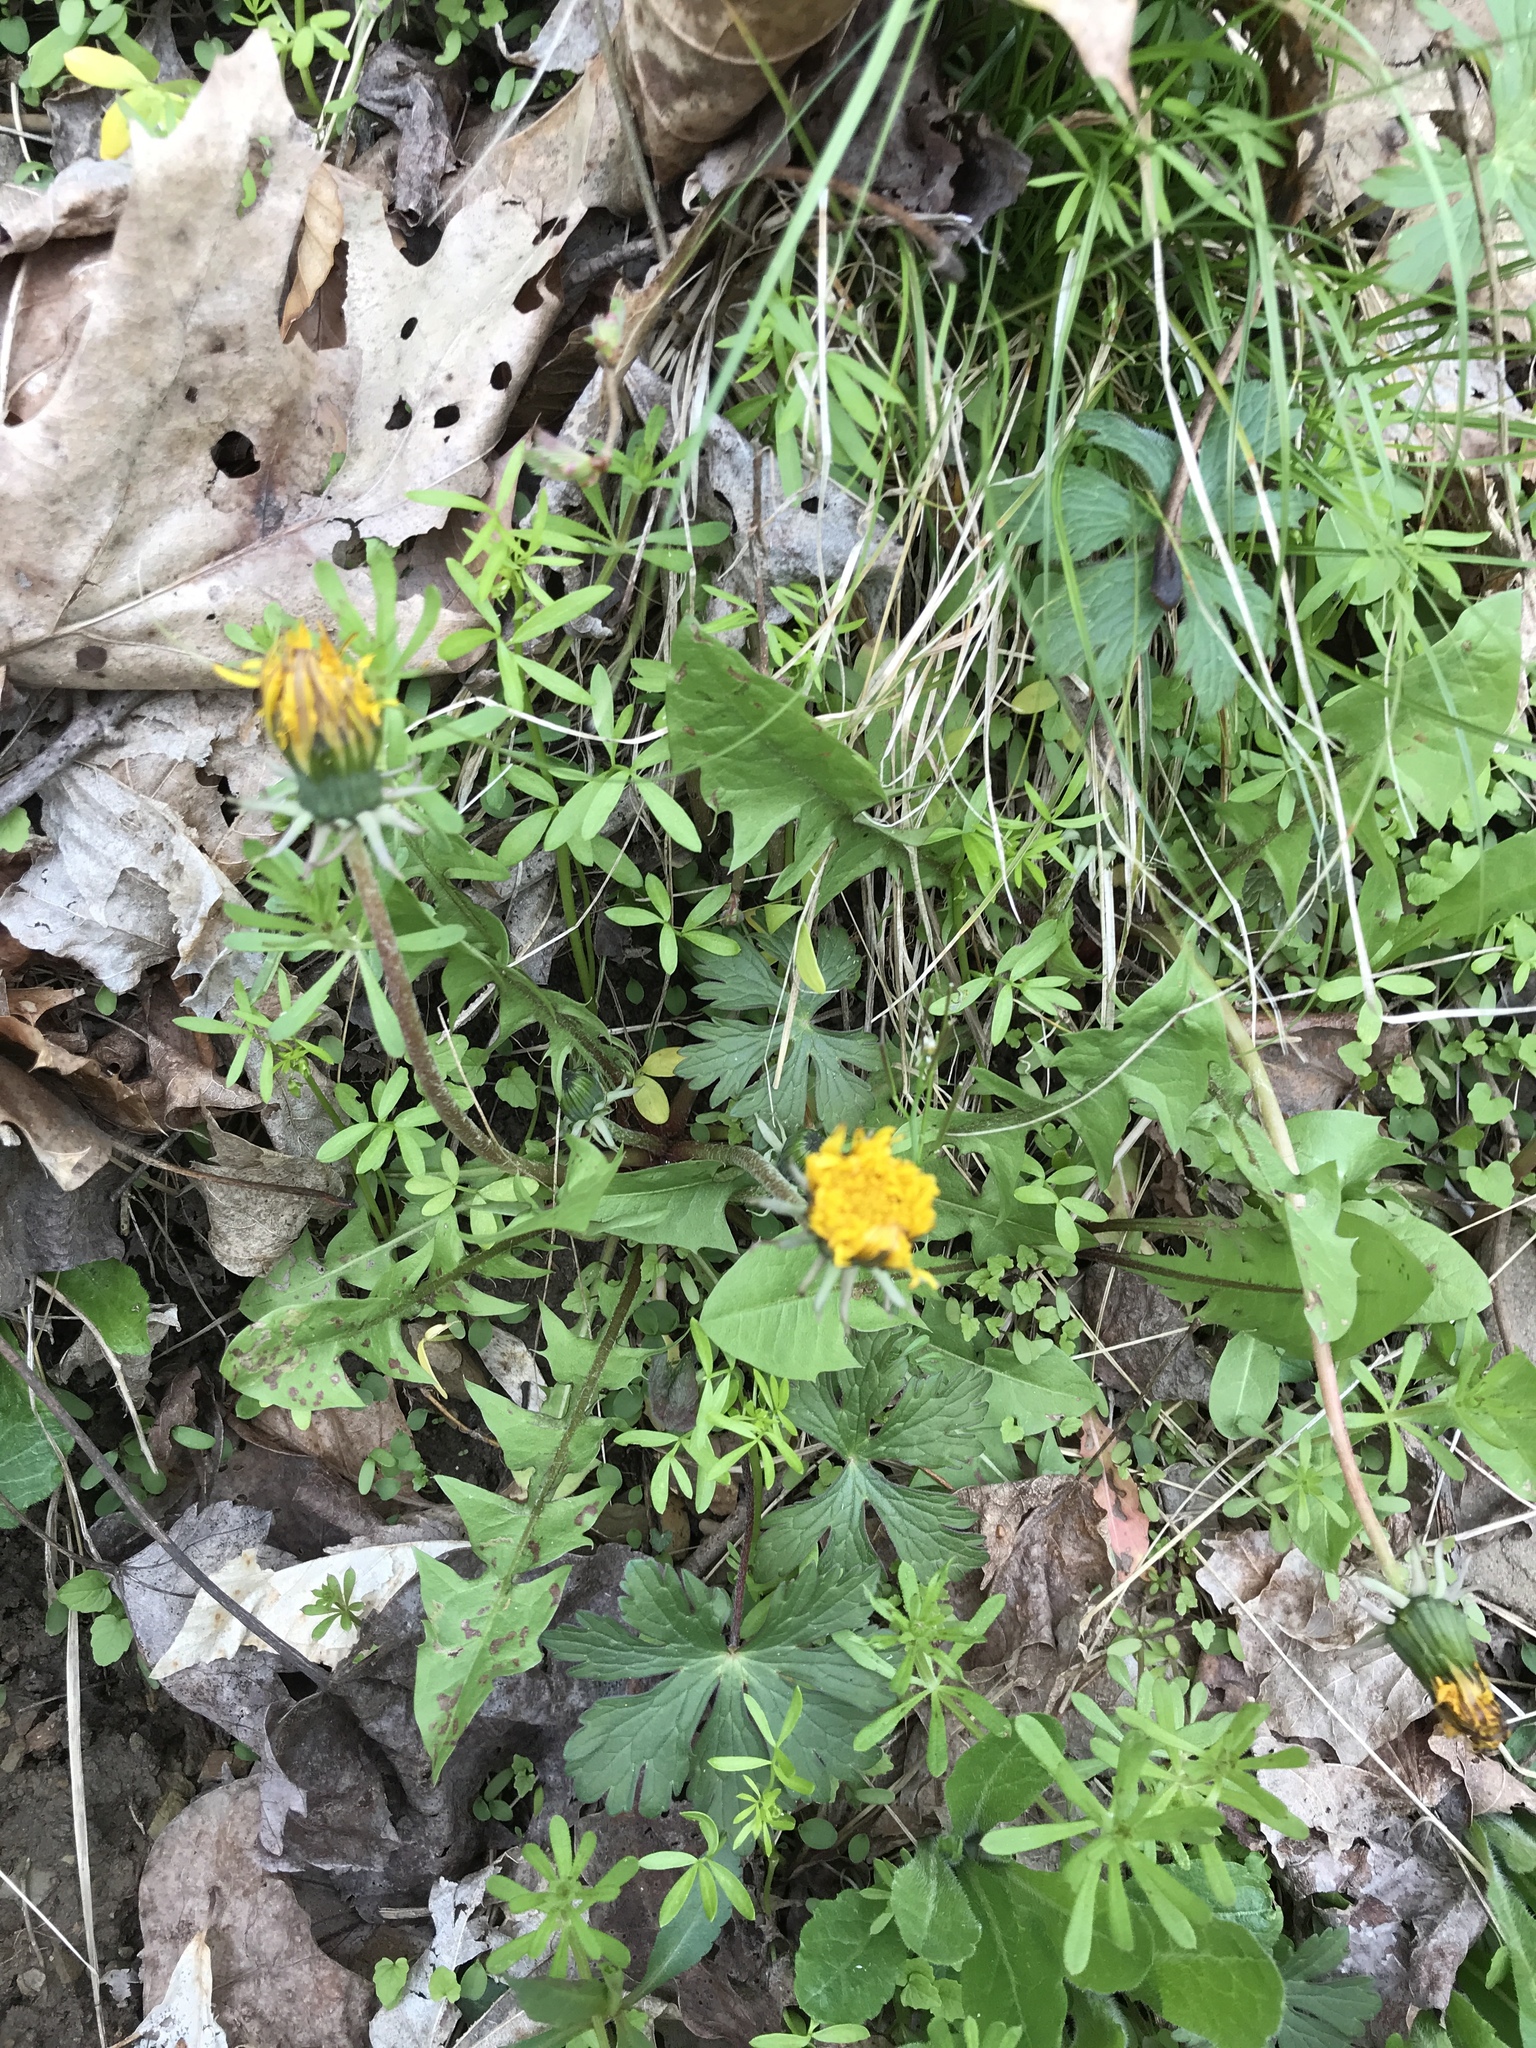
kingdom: Plantae
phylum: Tracheophyta
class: Magnoliopsida
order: Asterales
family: Asteraceae
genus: Taraxacum
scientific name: Taraxacum officinale
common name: Common dandelion
